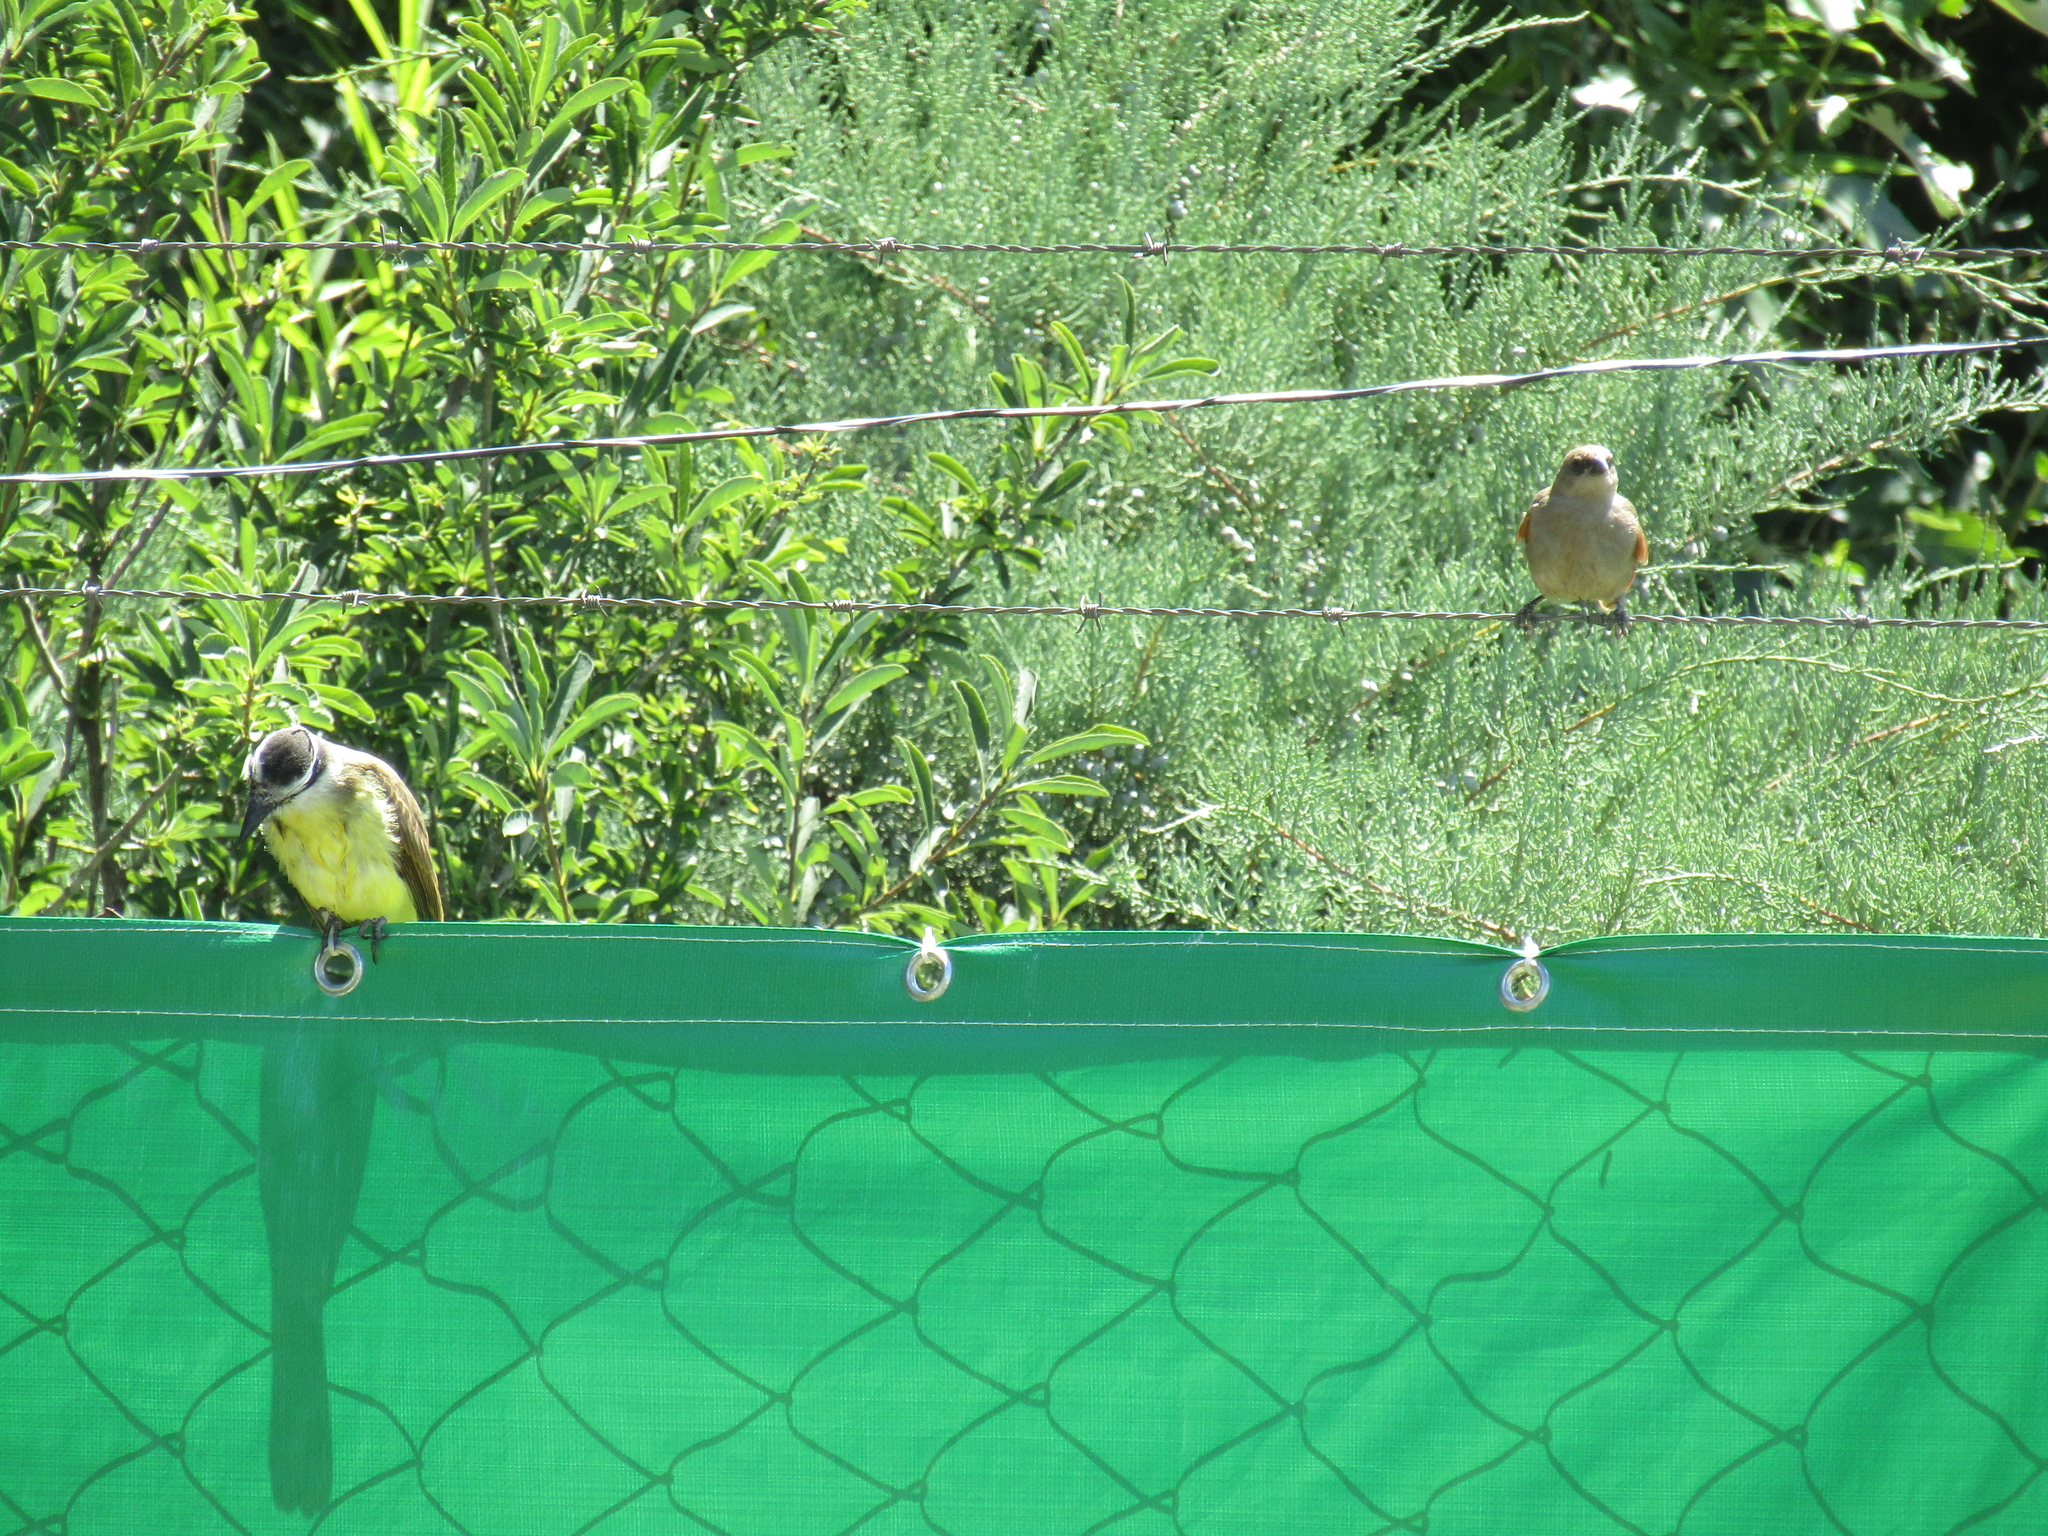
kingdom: Animalia
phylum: Chordata
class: Aves
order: Passeriformes
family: Tyrannidae
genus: Pitangus
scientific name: Pitangus sulphuratus
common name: Great kiskadee
